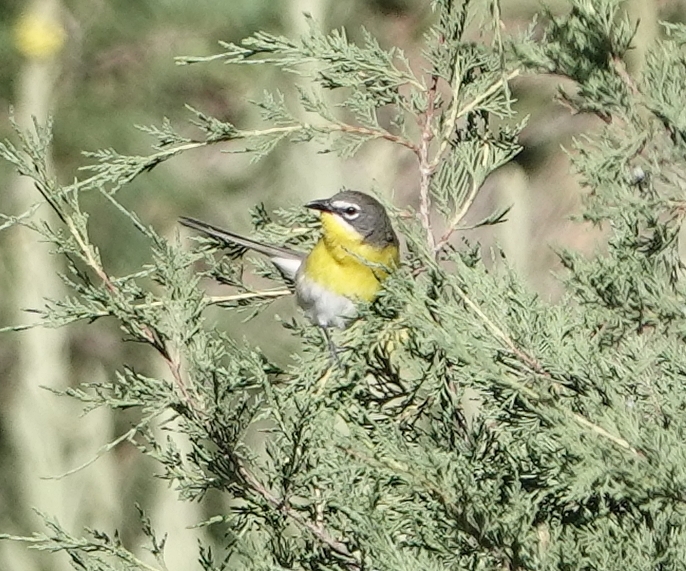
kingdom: Animalia
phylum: Chordata
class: Aves
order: Passeriformes
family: Parulidae
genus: Icteria
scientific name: Icteria virens
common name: Yellow-breasted chat
